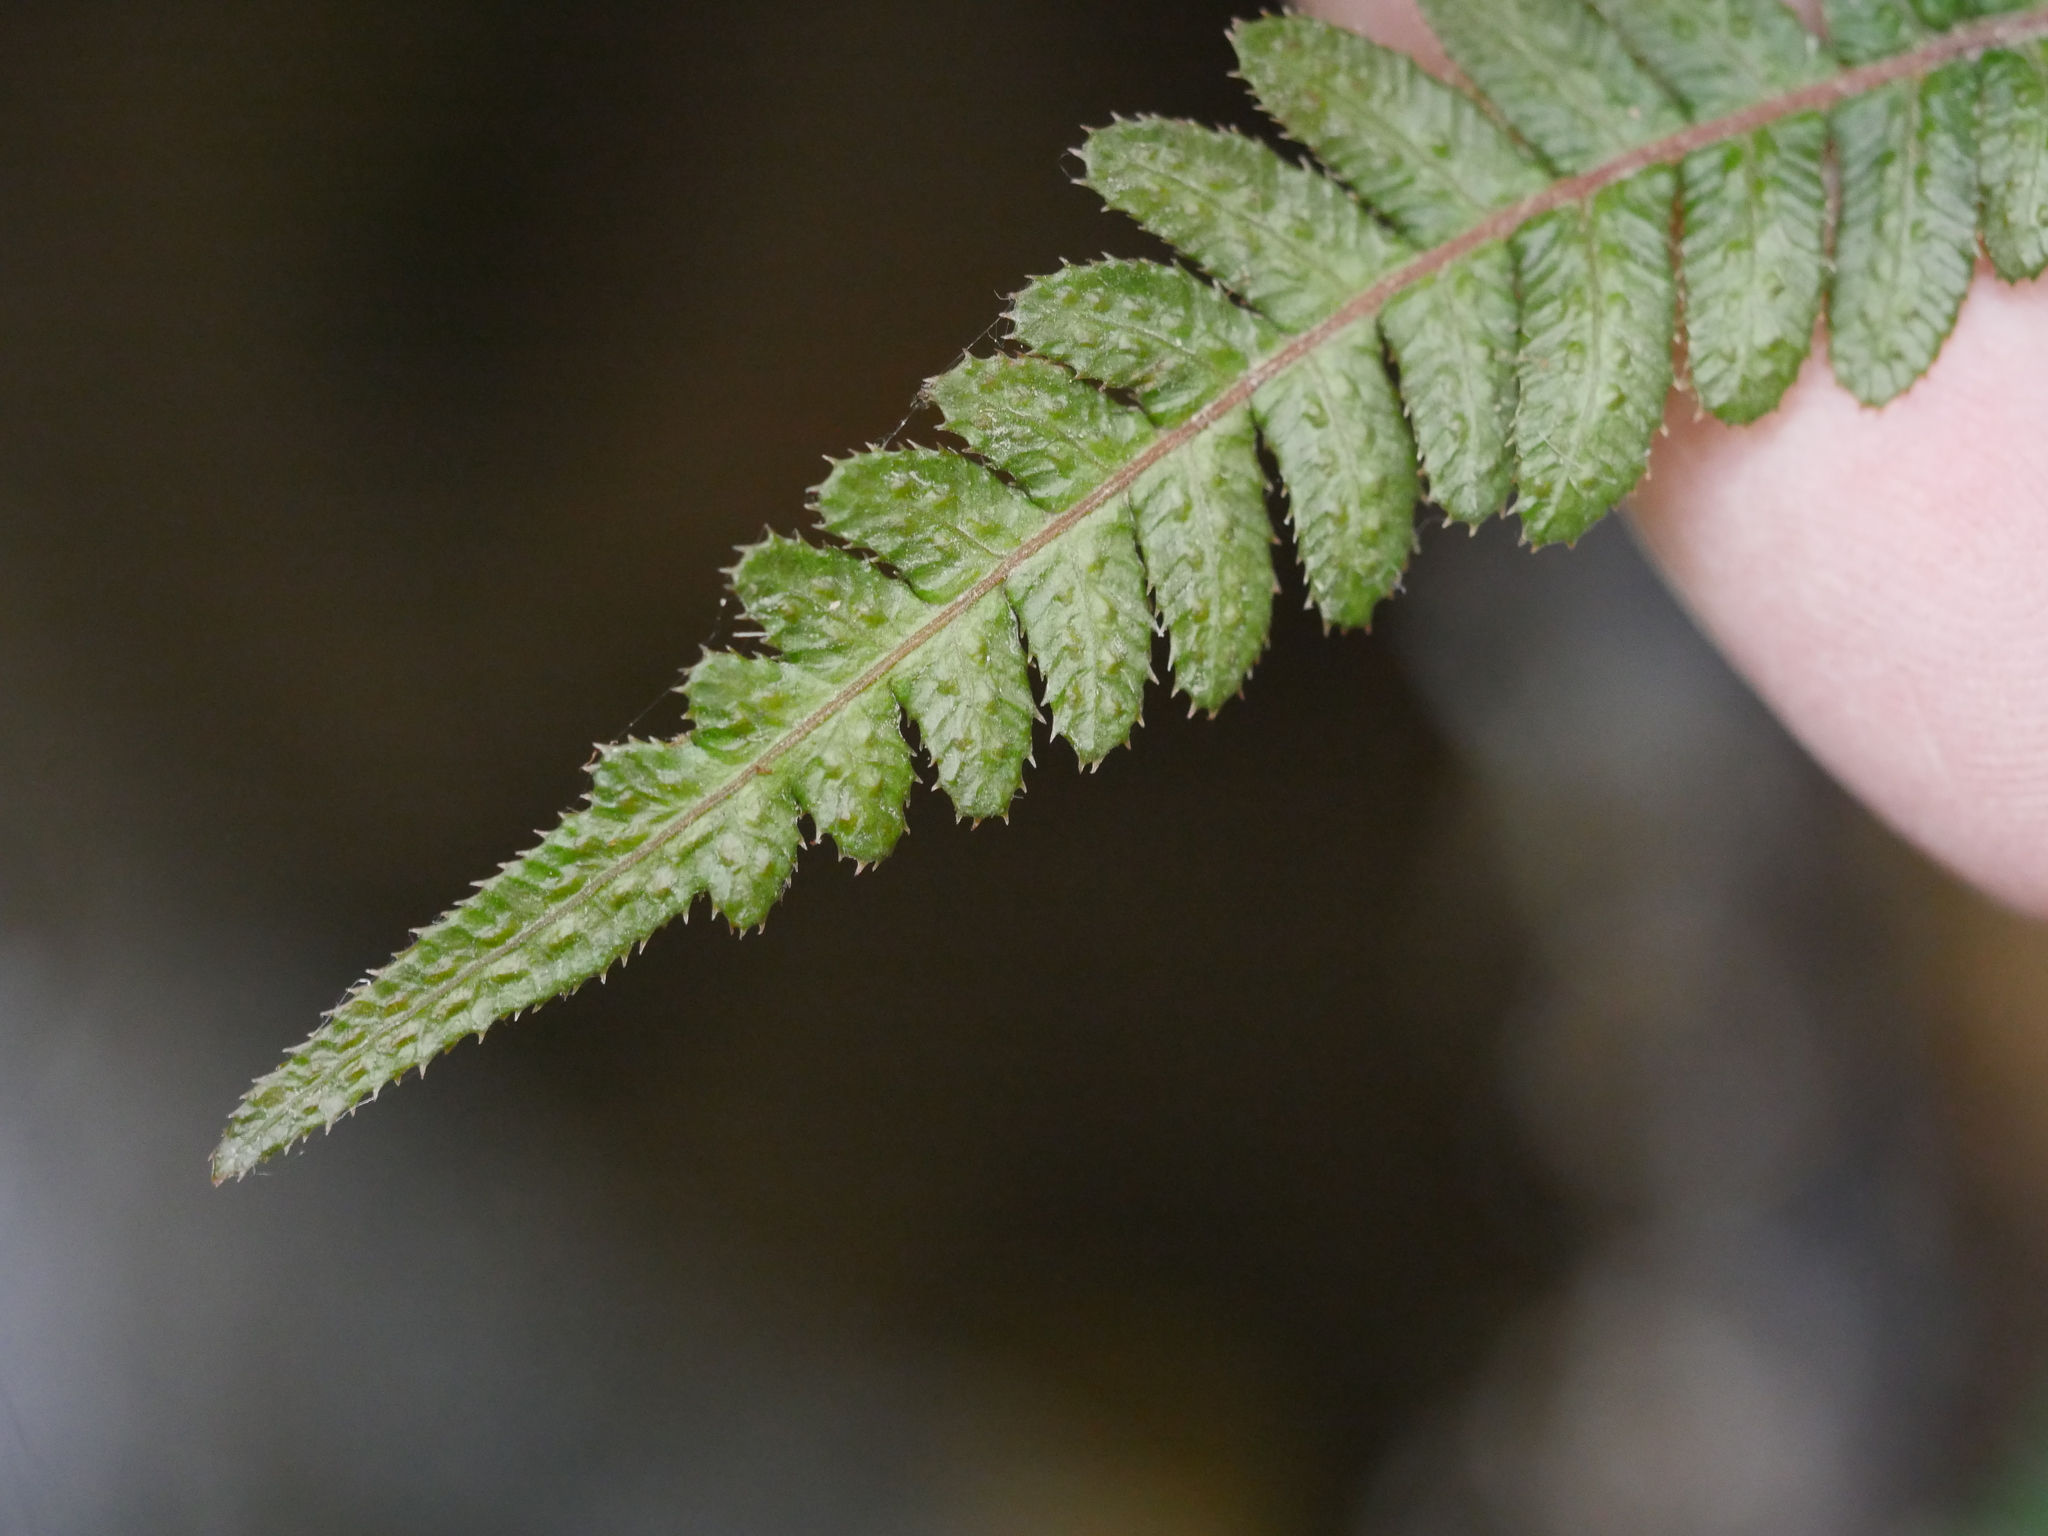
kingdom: Plantae
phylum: Tracheophyta
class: Polypodiopsida
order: Polypodiales
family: Blechnaceae
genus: Doodia
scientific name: Doodia australis
